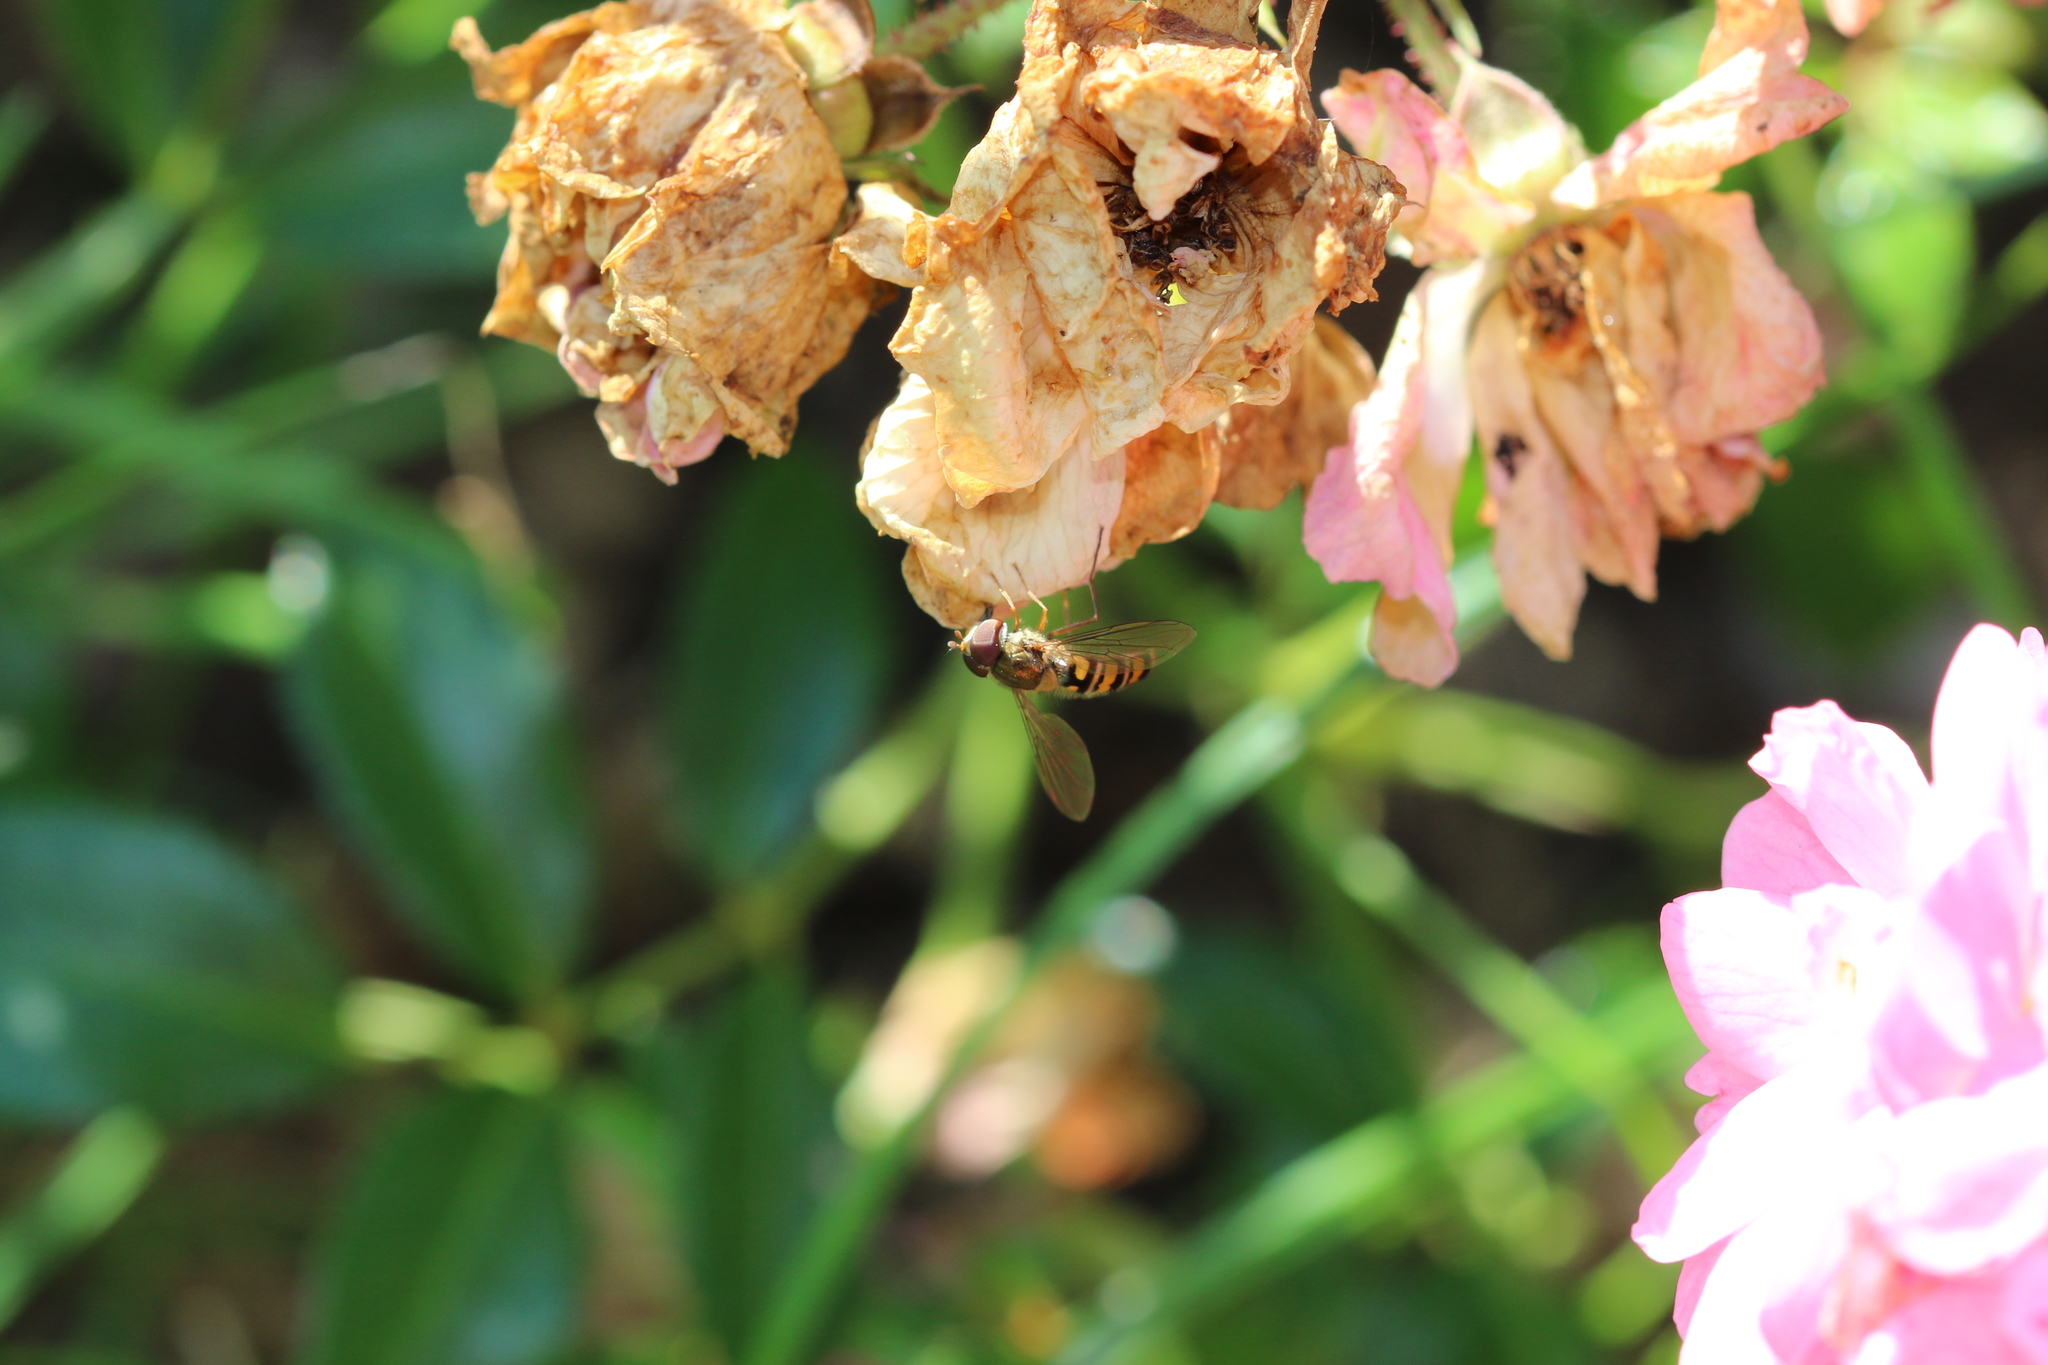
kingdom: Animalia
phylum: Arthropoda
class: Insecta
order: Diptera
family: Syrphidae
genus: Episyrphus
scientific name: Episyrphus balteatus
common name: Marmalade hoverfly
